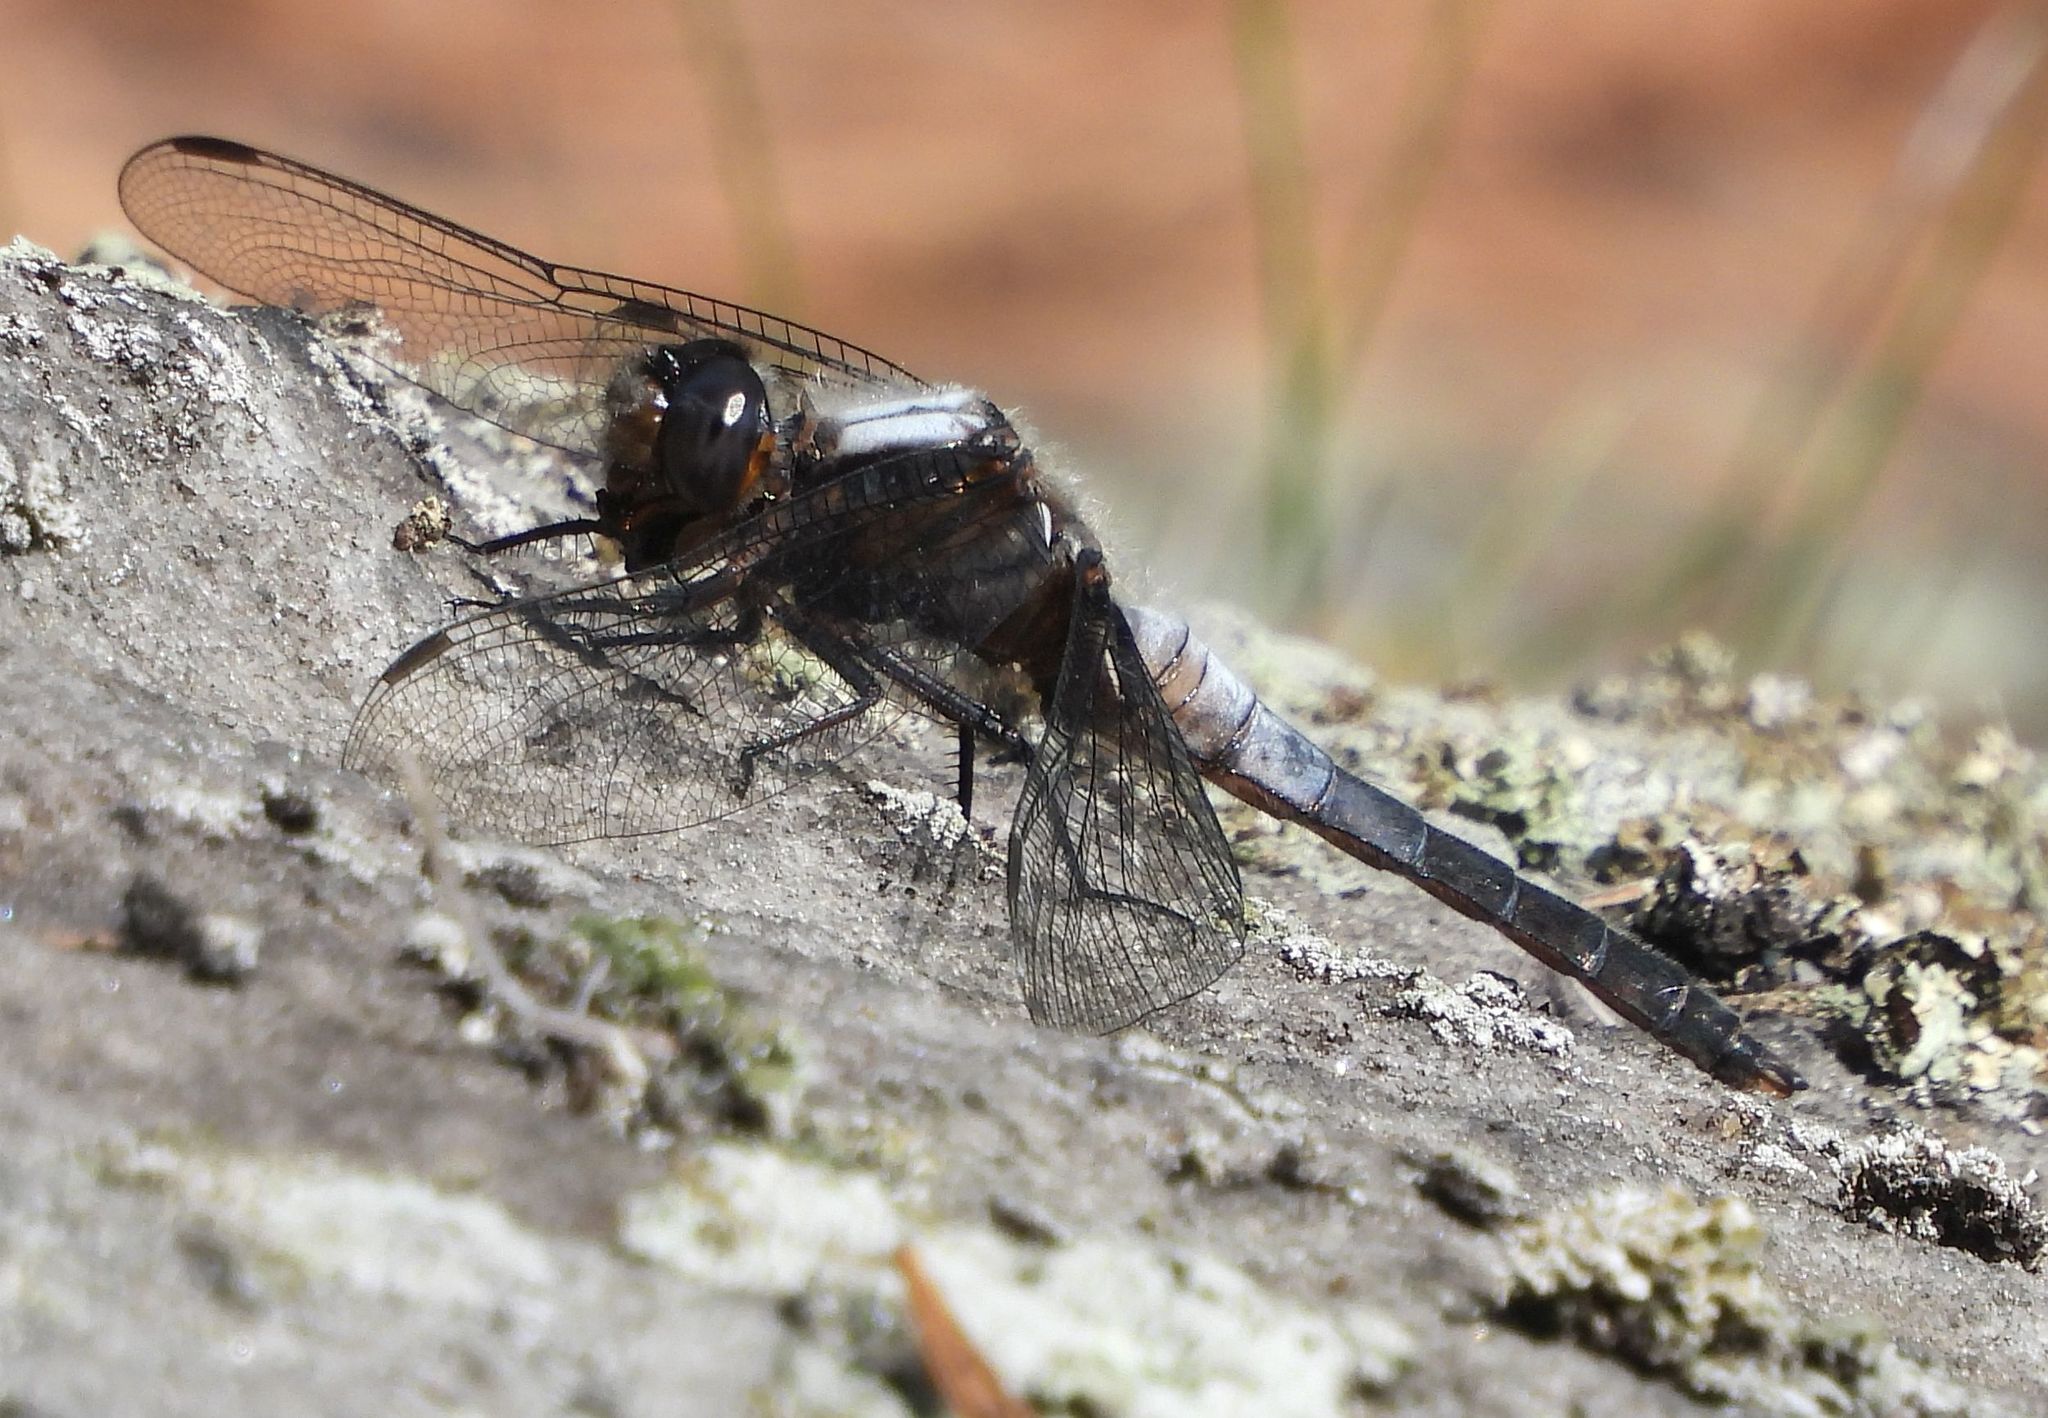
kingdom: Animalia
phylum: Arthropoda
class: Insecta
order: Odonata
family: Libellulidae
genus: Ladona
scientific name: Ladona julia
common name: Chalk-fronted corporal
